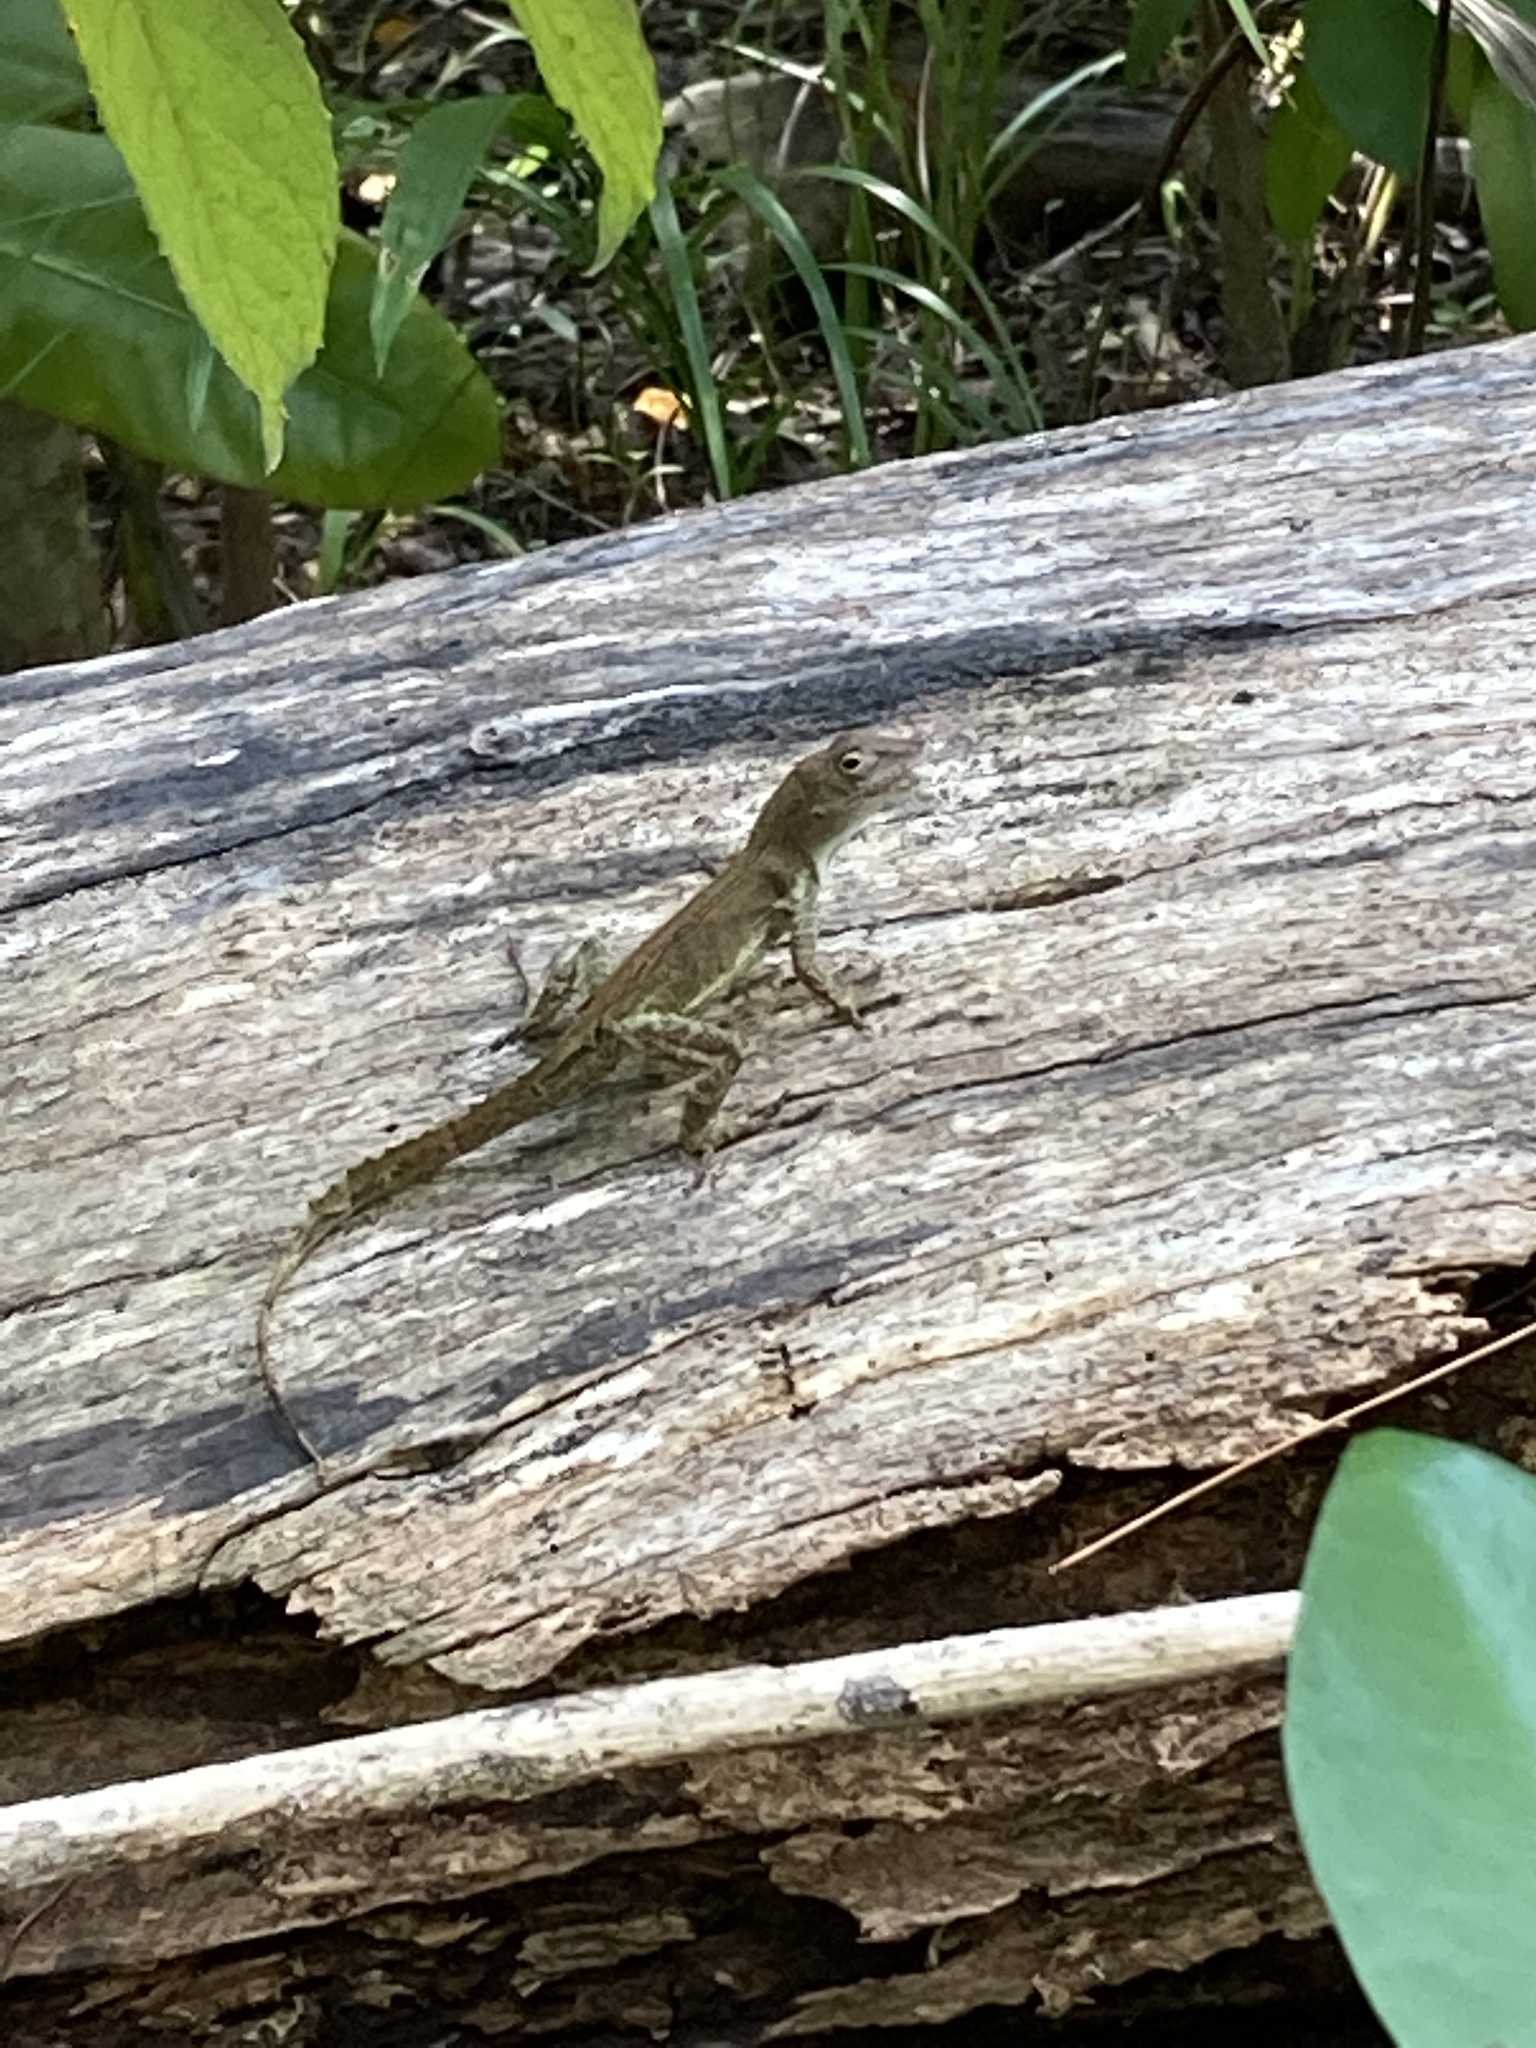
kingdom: Animalia
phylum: Chordata
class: Squamata
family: Dactyloidae
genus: Anolis
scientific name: Anolis cristatellus
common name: Crested anole
